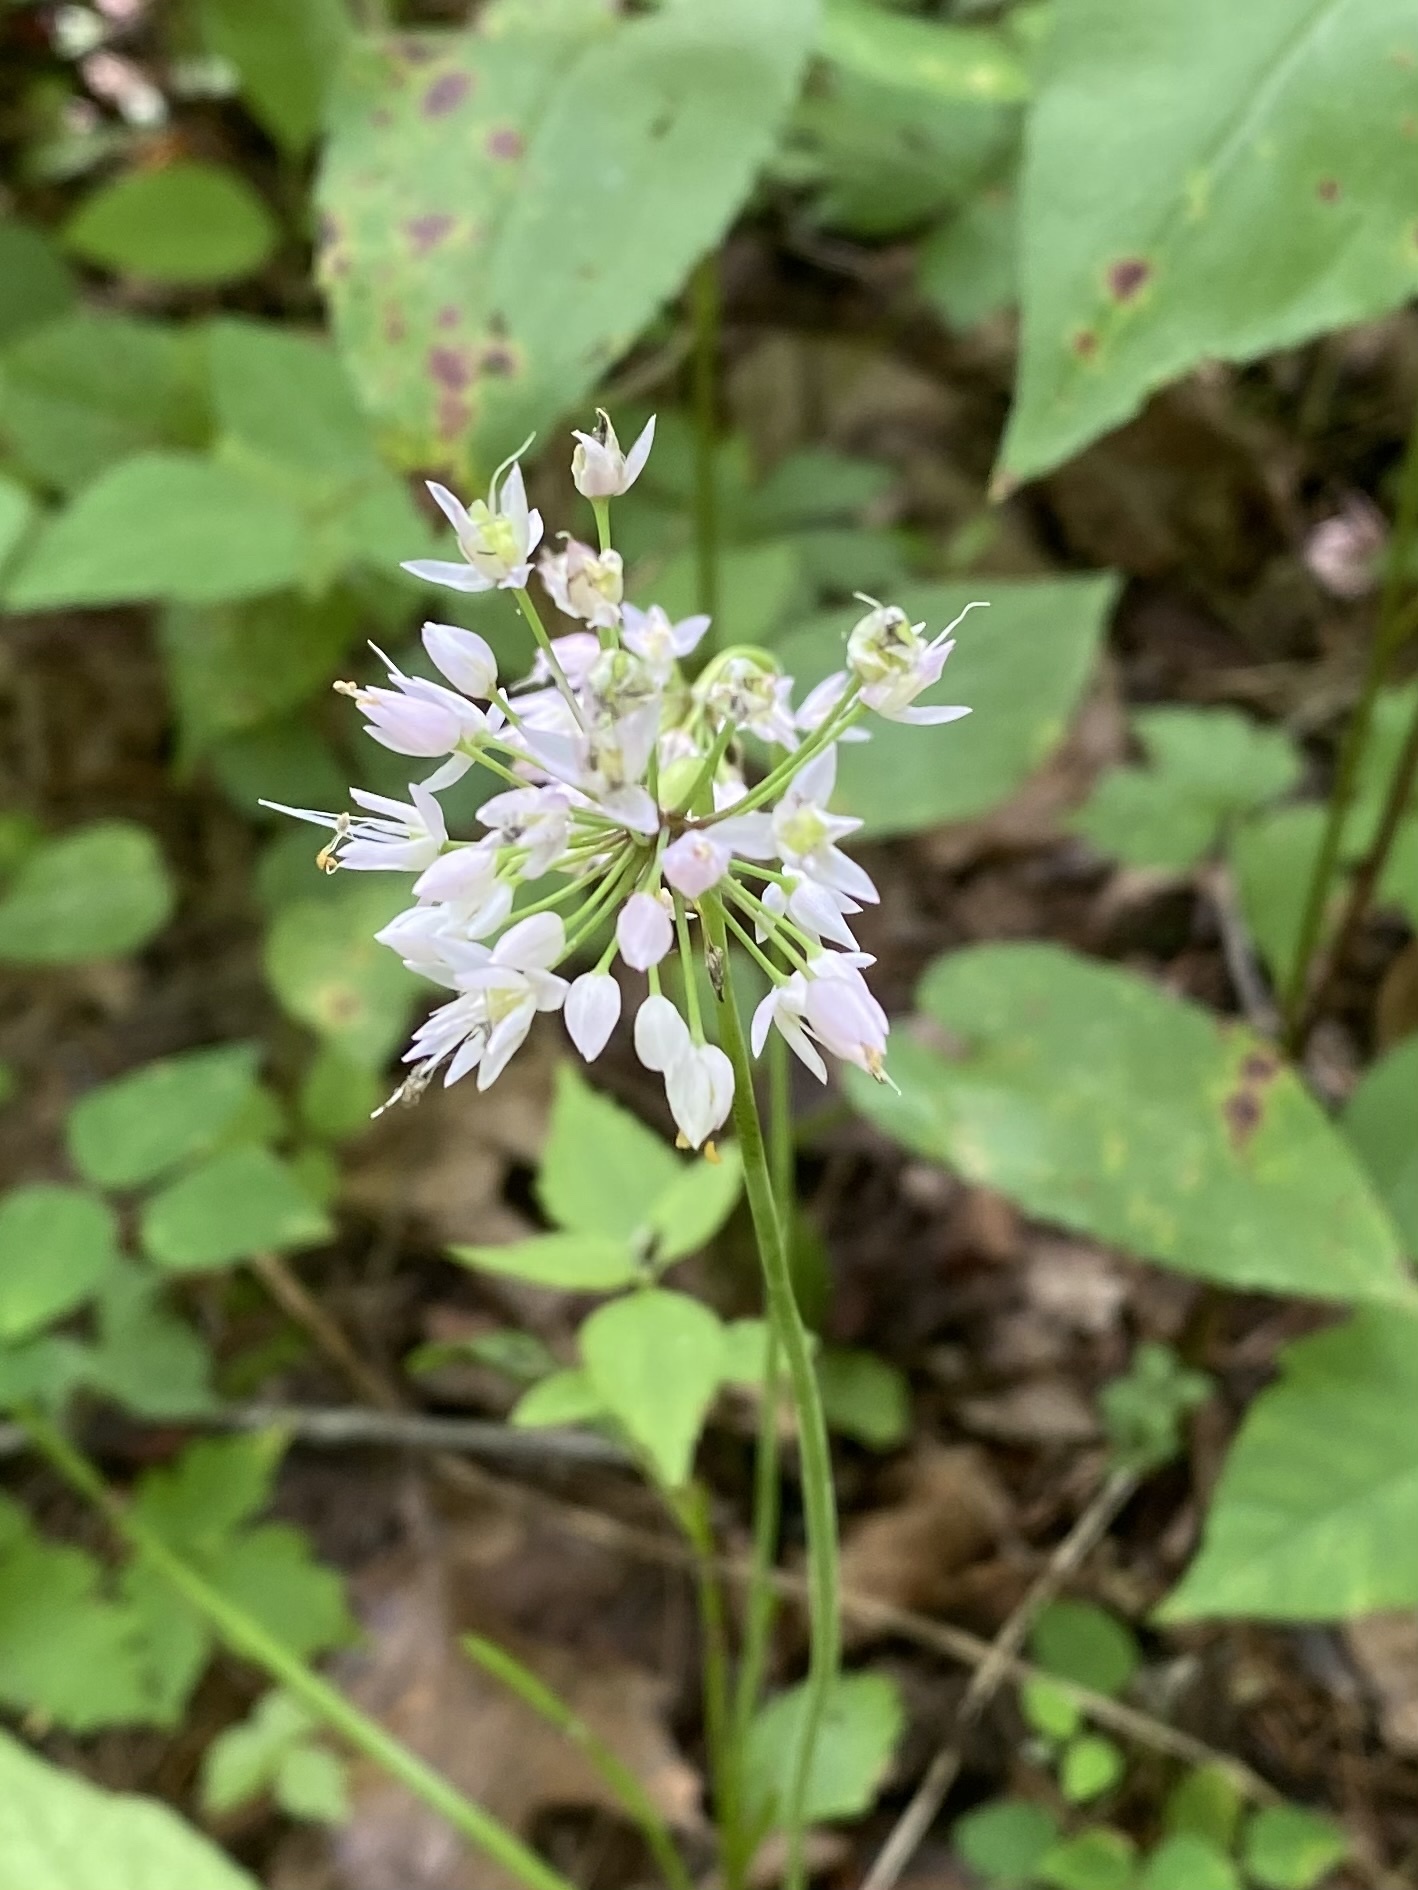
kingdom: Plantae
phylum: Tracheophyta
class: Liliopsida
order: Asparagales
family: Amaryllidaceae
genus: Allium
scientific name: Allium cernuum
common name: Nodding onion
